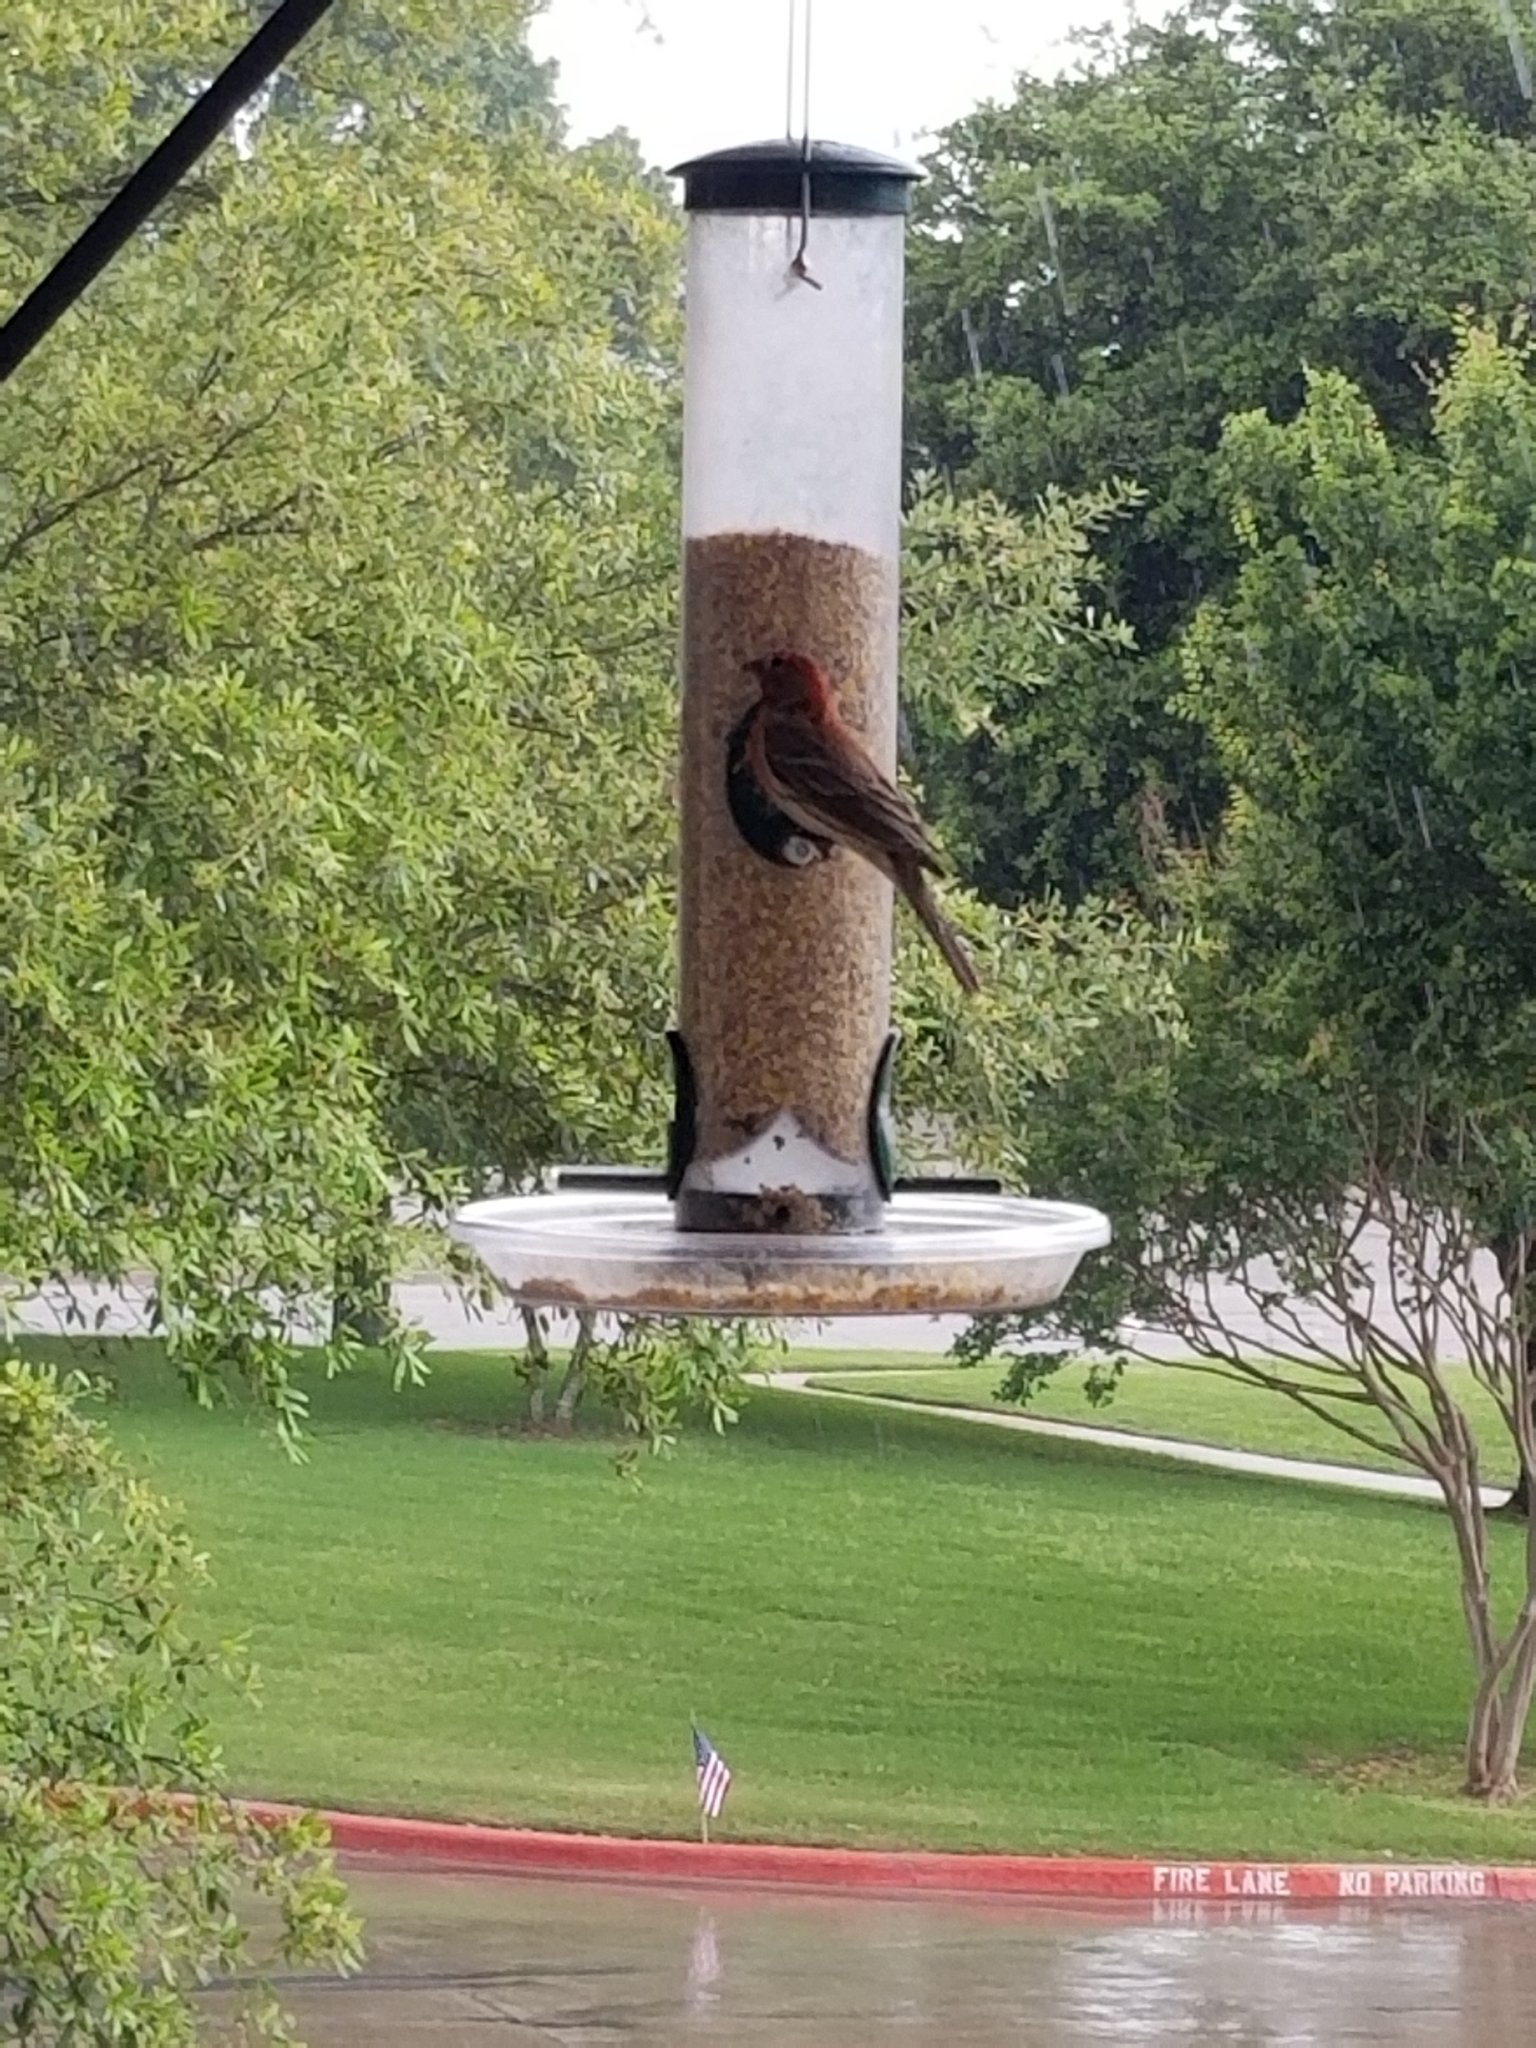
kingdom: Animalia
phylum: Chordata
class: Aves
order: Passeriformes
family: Fringillidae
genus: Haemorhous
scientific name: Haemorhous mexicanus
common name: House finch
